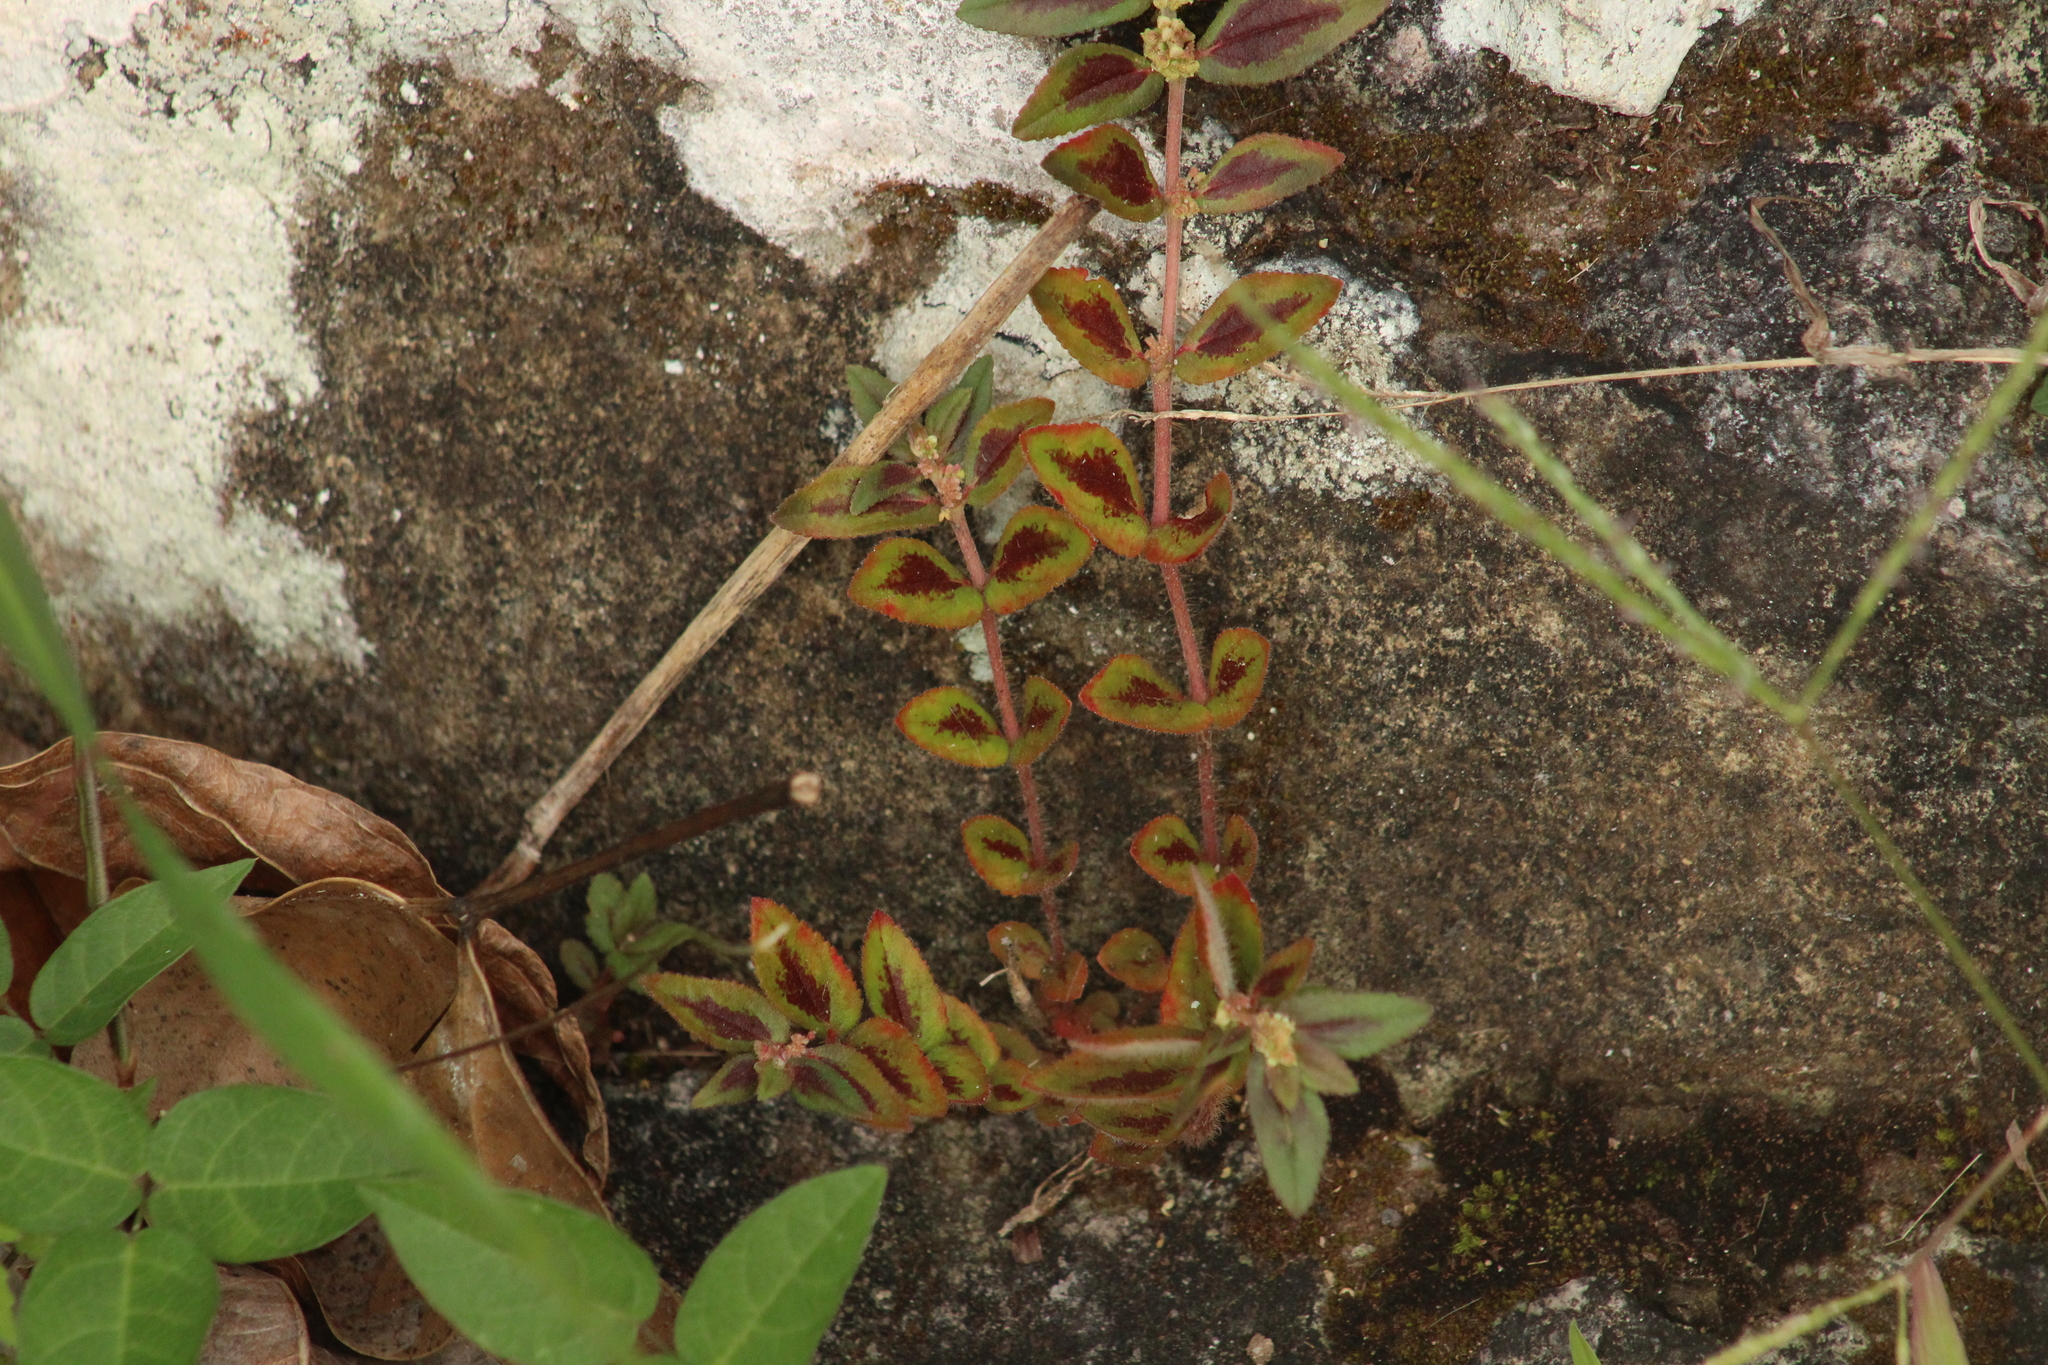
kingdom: Plantae
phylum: Tracheophyta
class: Magnoliopsida
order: Malpighiales
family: Euphorbiaceae
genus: Euphorbia
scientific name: Euphorbia hirta
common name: Pillpod sandmat
